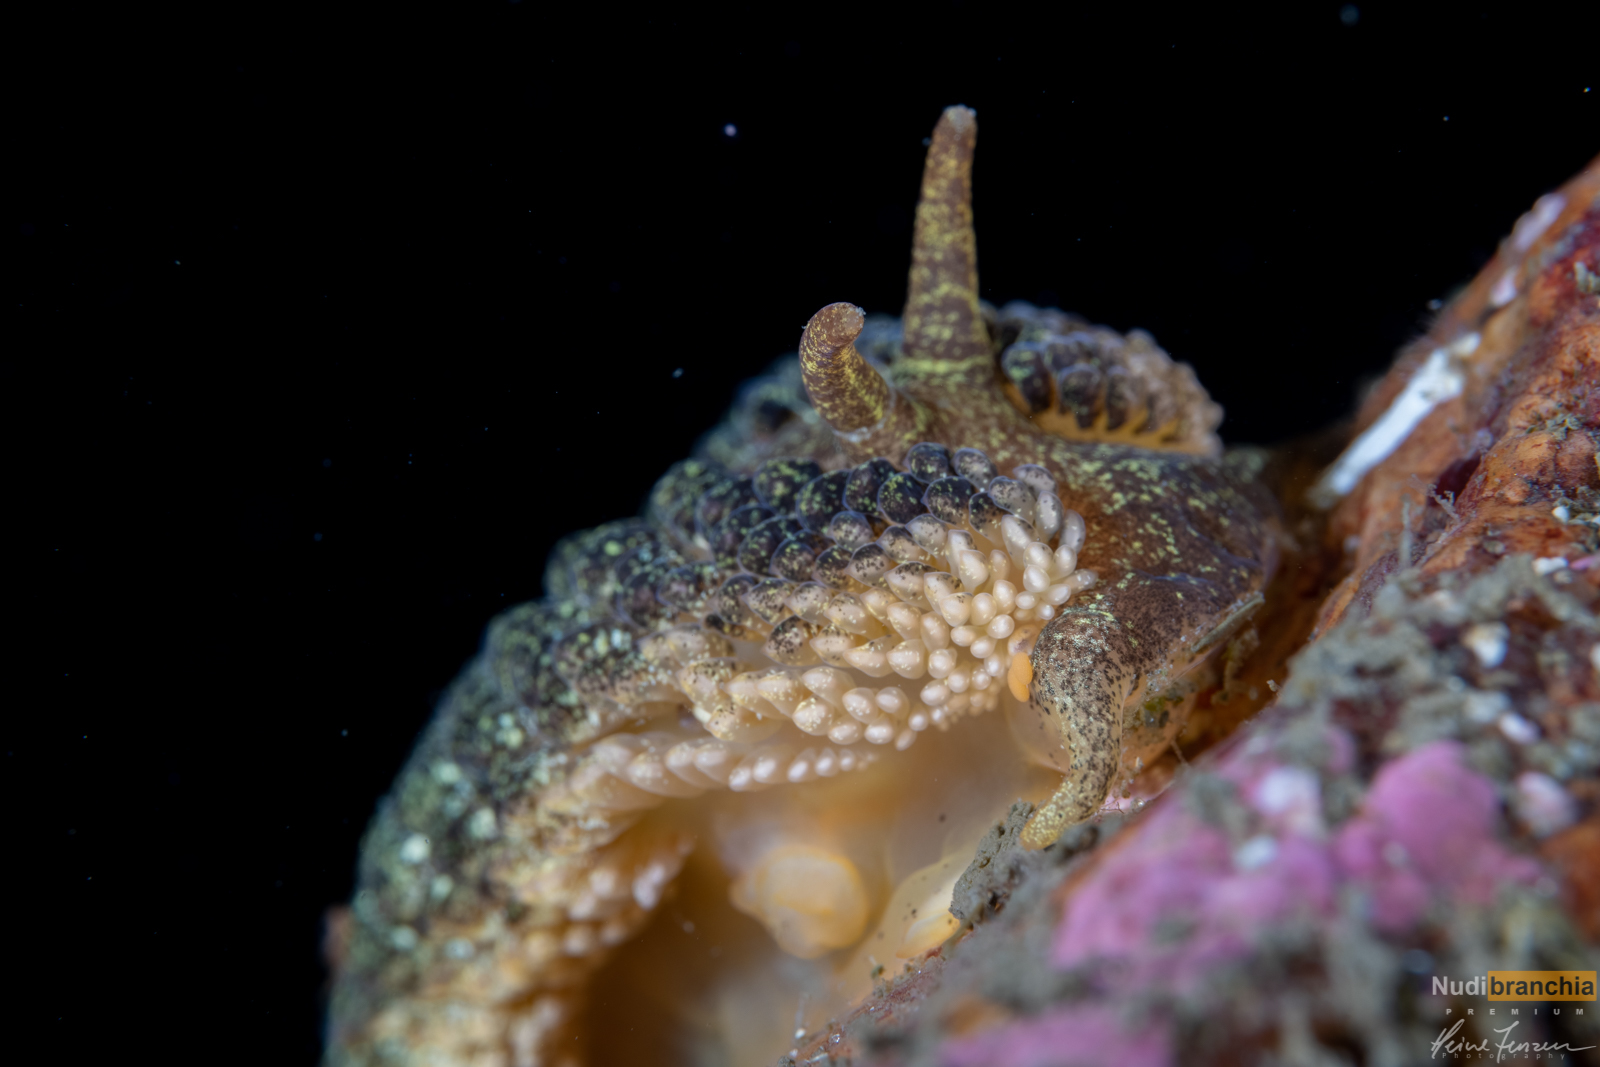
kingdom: Animalia
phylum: Mollusca
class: Gastropoda
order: Nudibranchia
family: Aeolidiidae
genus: Aeolidia
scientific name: Aeolidia papillosa
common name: Common grey sea slug
